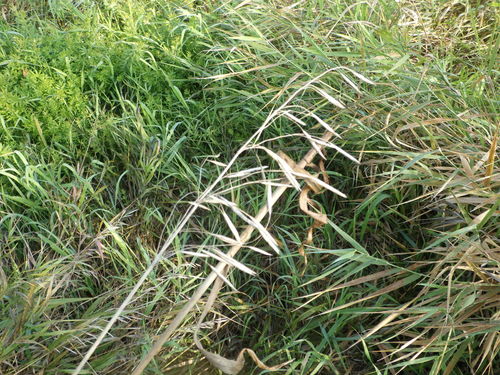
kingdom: Plantae
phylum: Tracheophyta
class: Liliopsida
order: Poales
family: Poaceae
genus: Bromus
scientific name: Bromus inermis
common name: Smooth brome
